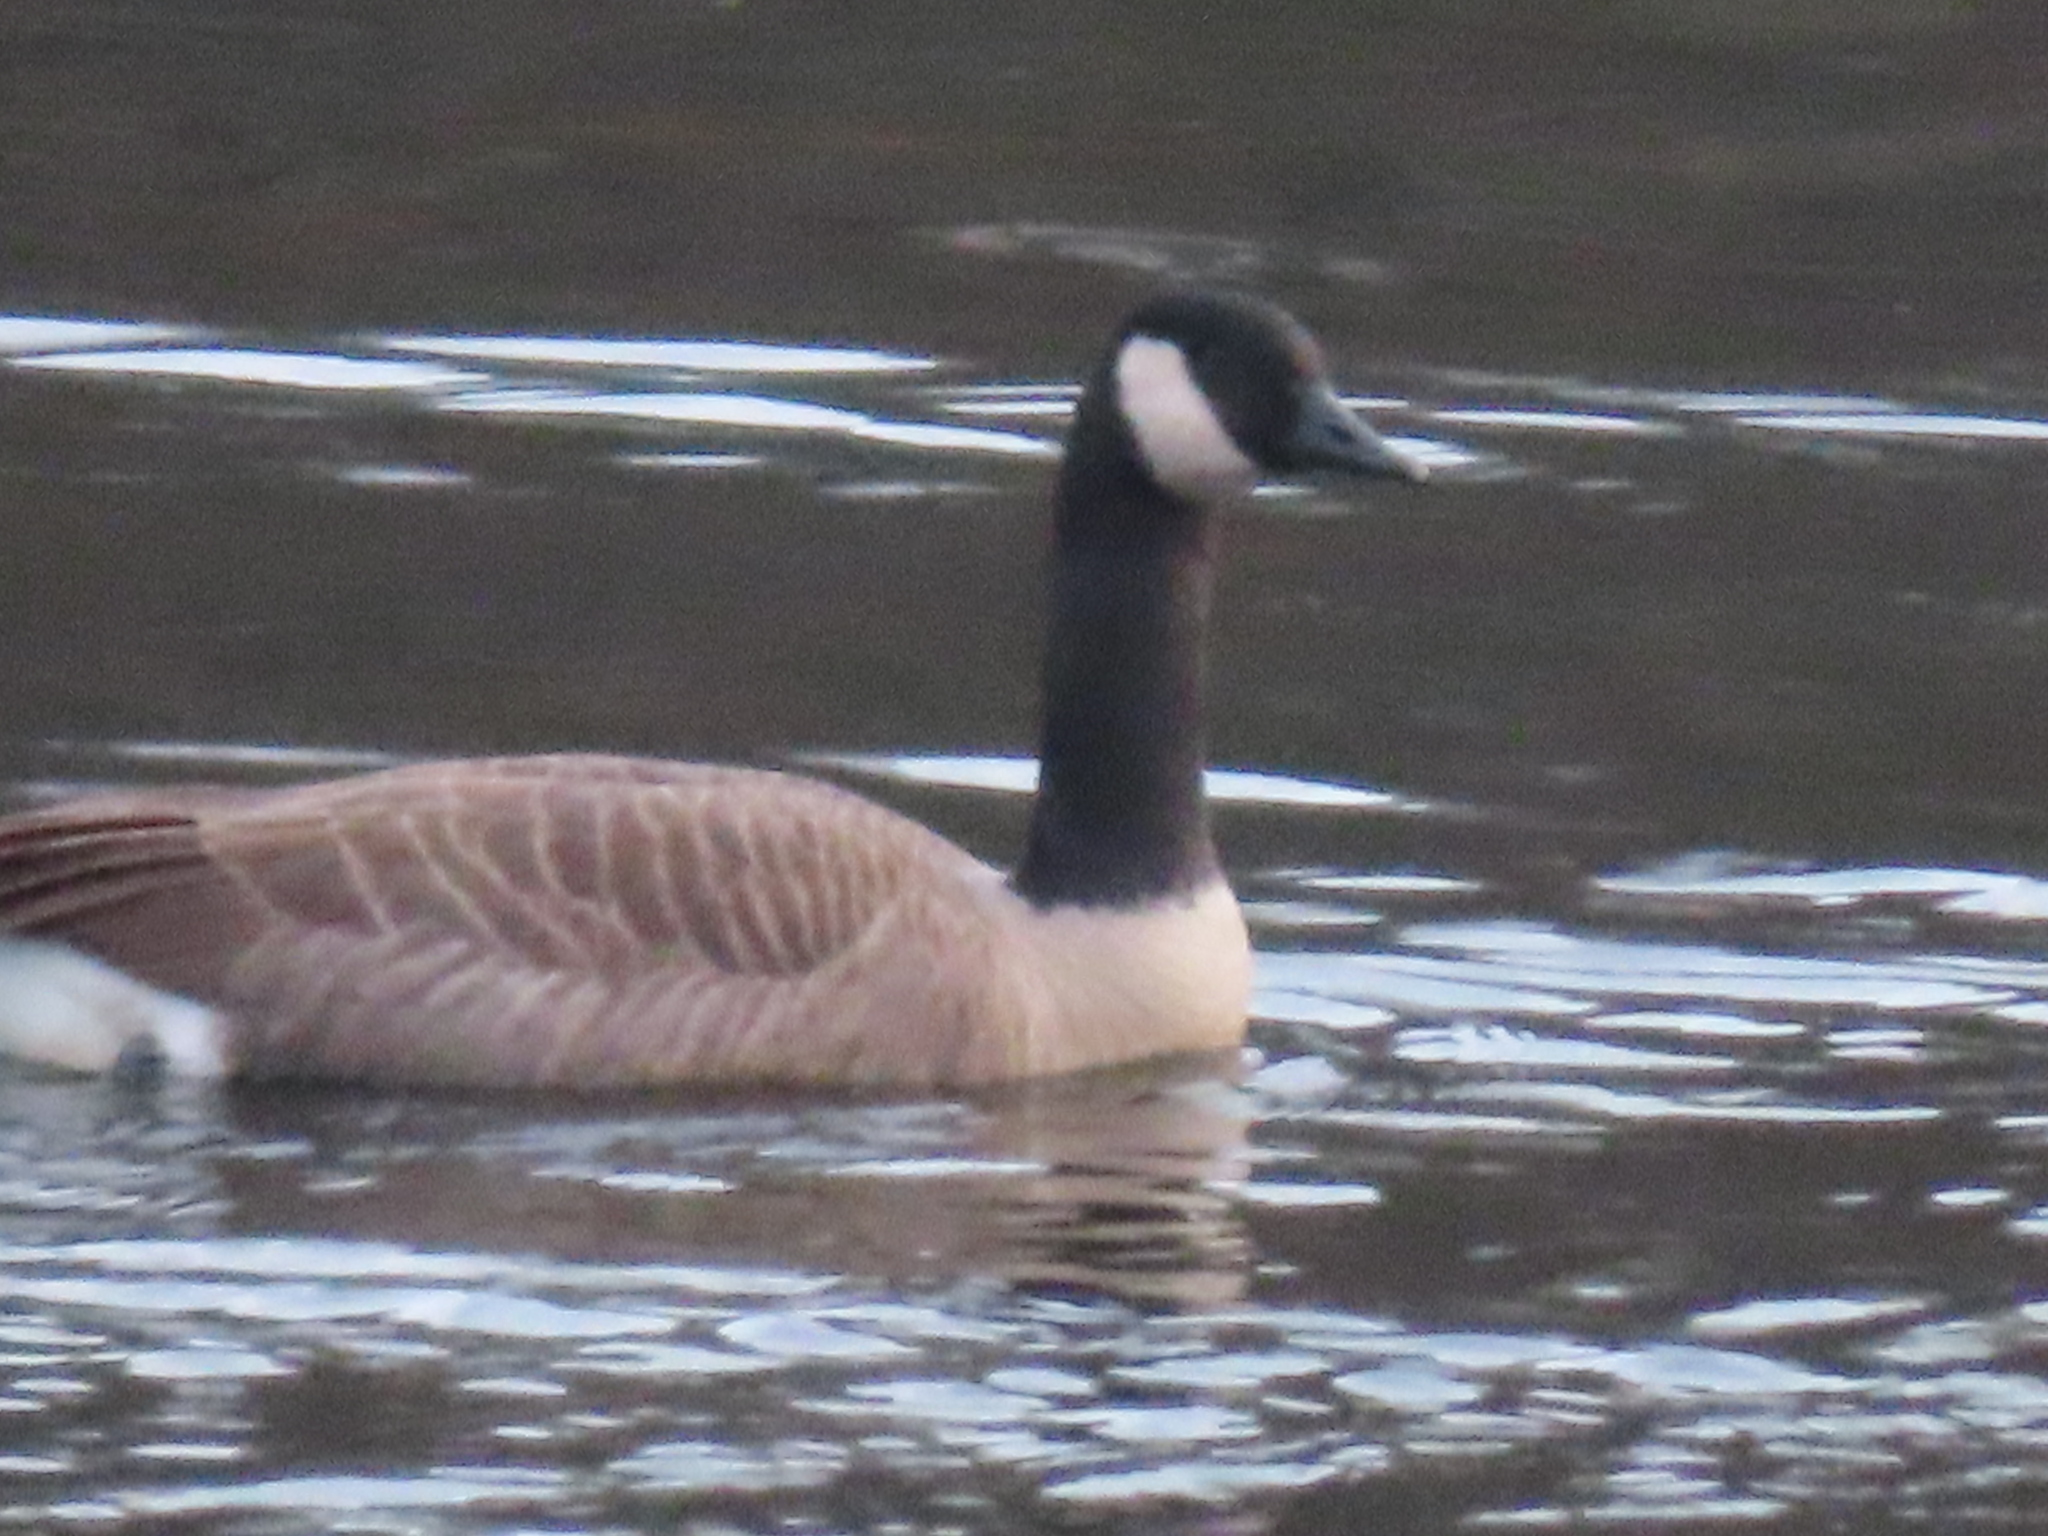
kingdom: Animalia
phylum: Chordata
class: Aves
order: Anseriformes
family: Anatidae
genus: Branta
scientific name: Branta canadensis
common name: Canada goose
